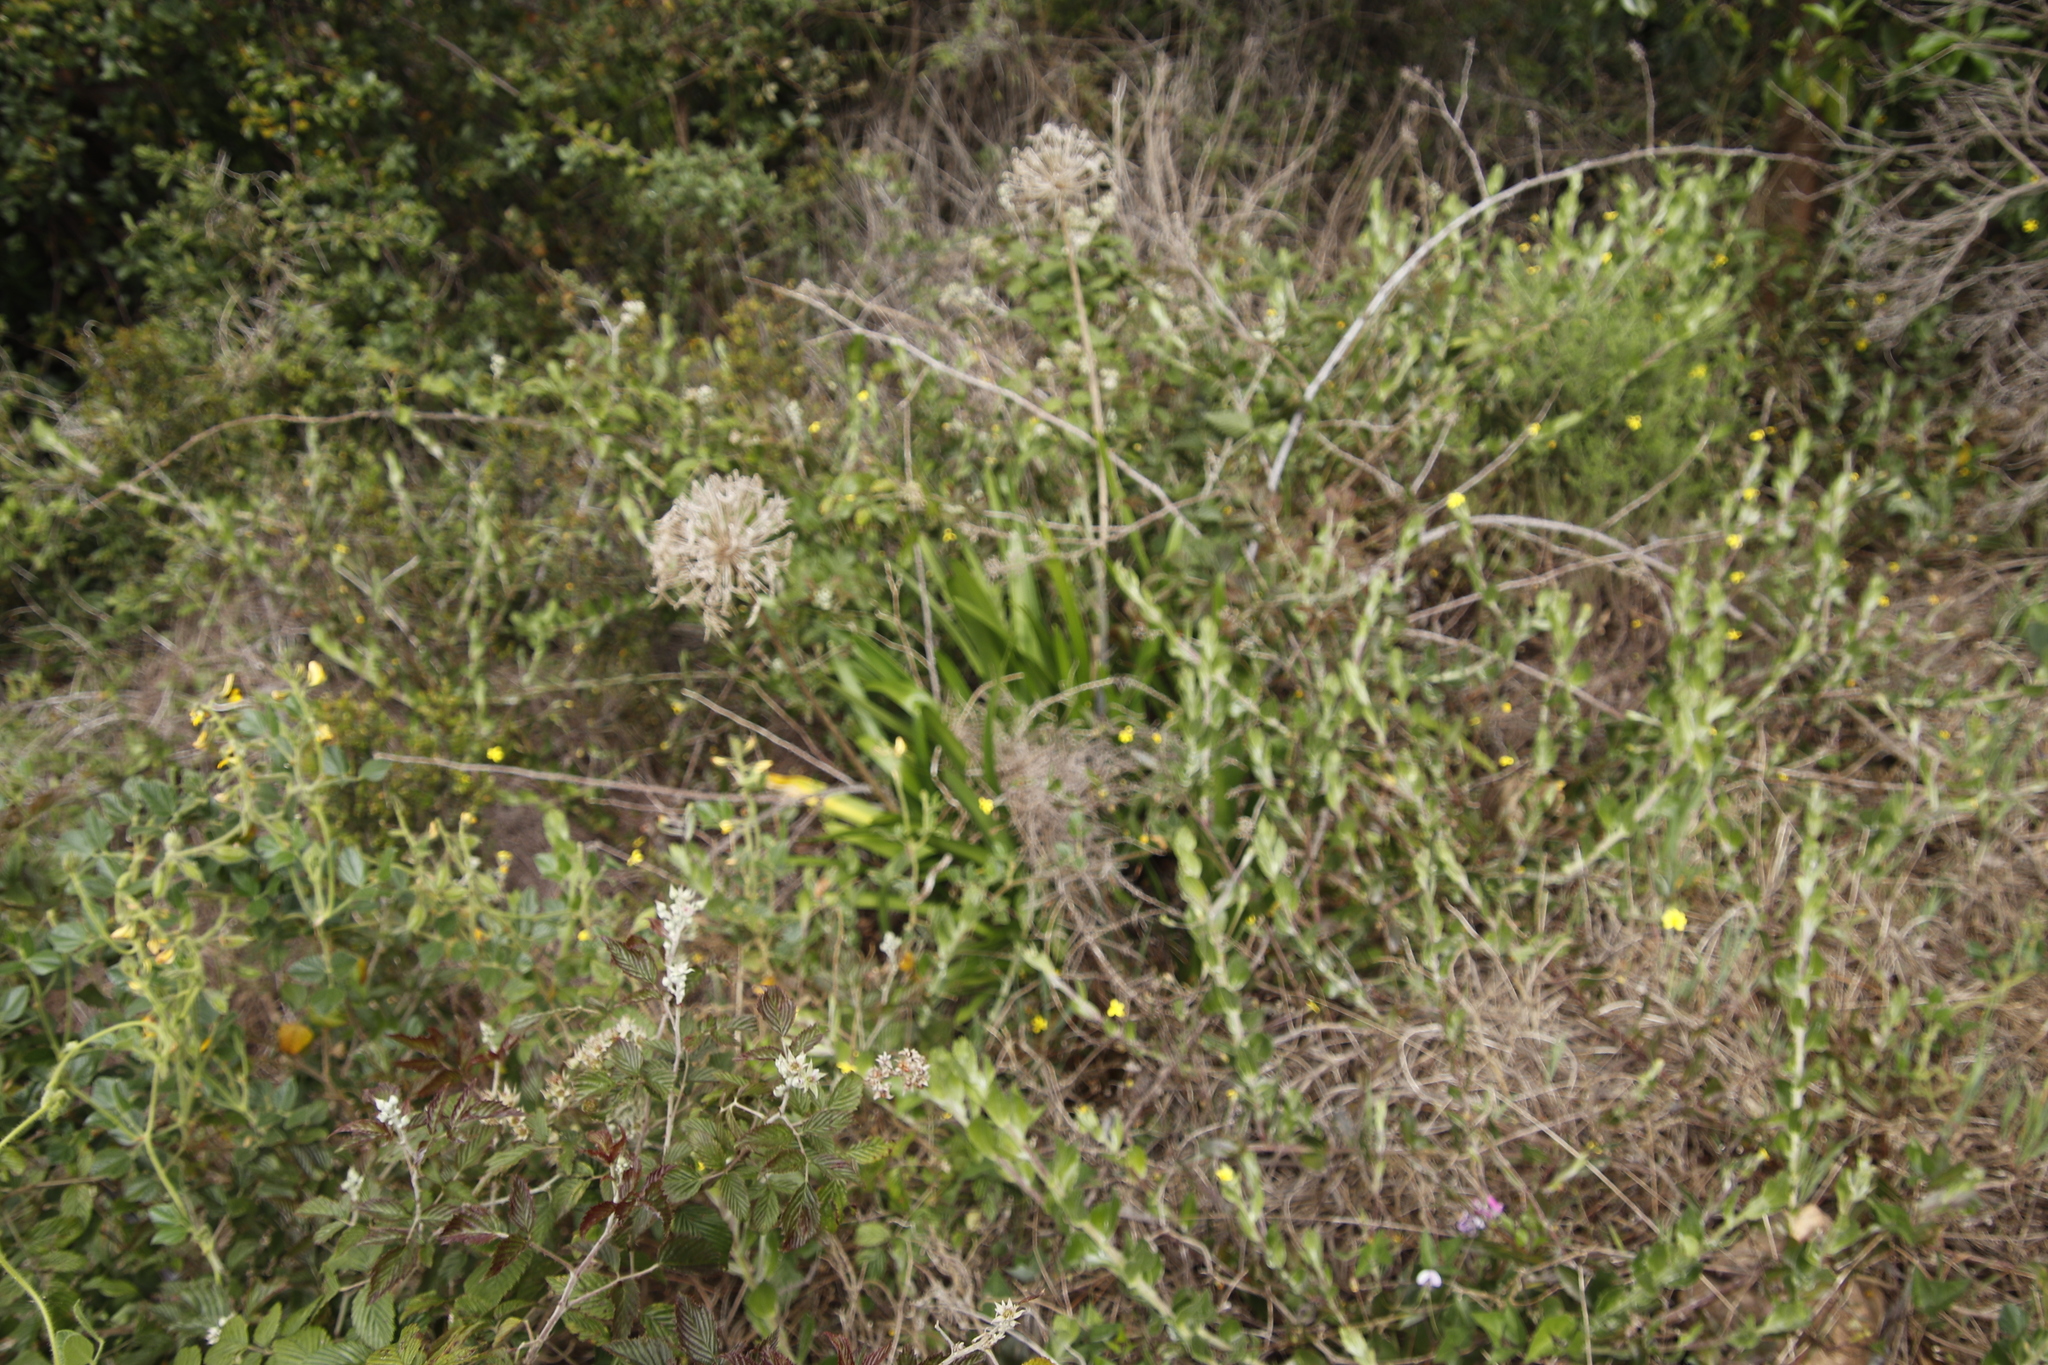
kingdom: Plantae
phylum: Tracheophyta
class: Liliopsida
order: Asparagales
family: Amaryllidaceae
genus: Agapanthus
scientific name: Agapanthus praecox
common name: African-lily
